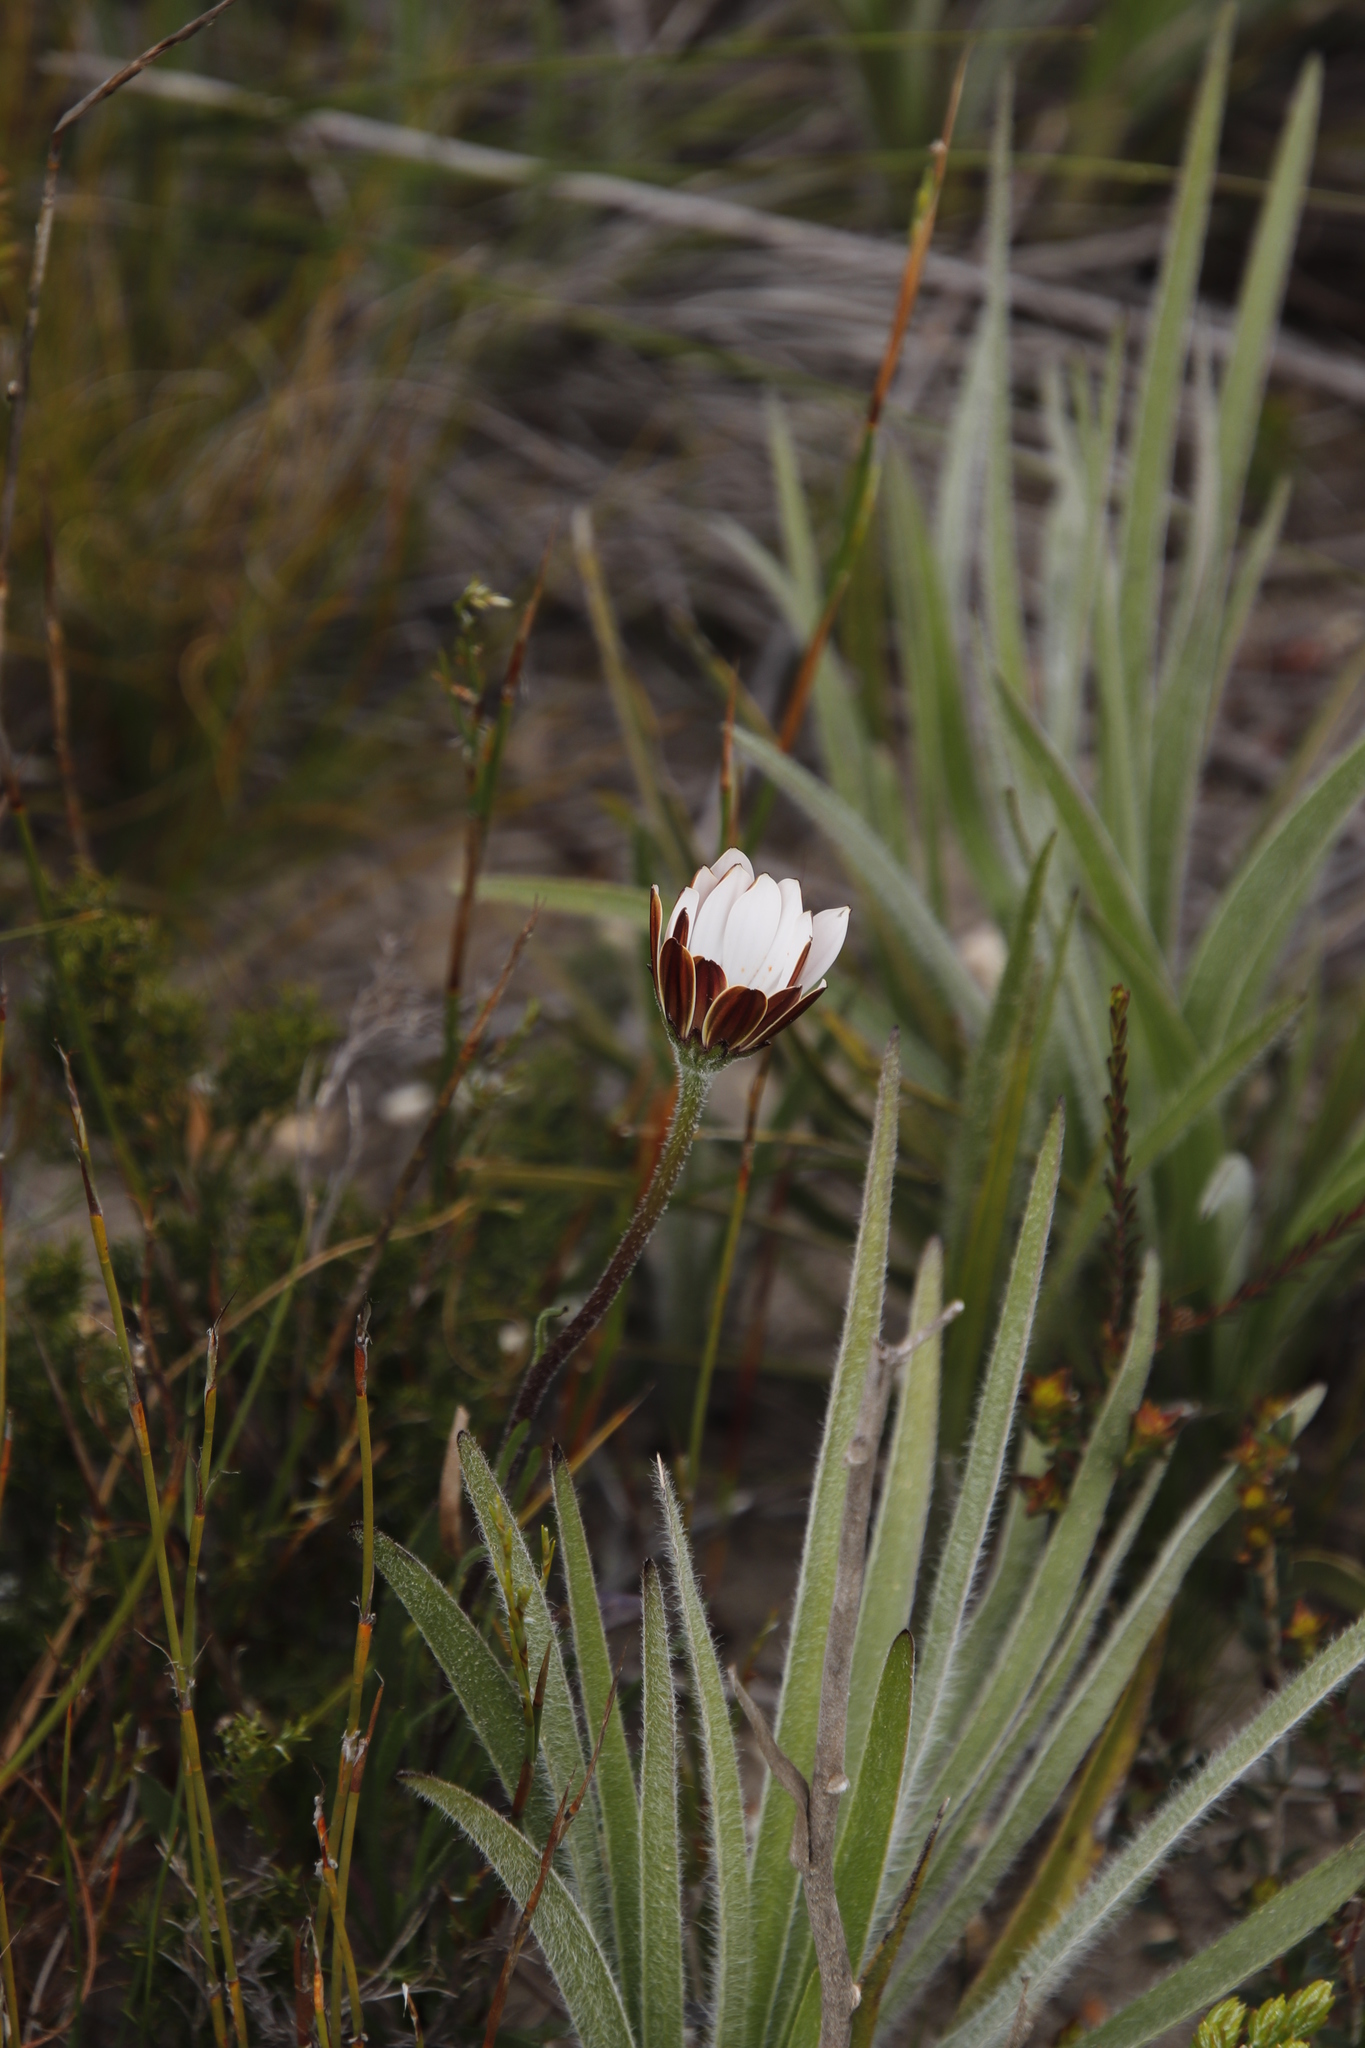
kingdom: Plantae
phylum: Tracheophyta
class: Magnoliopsida
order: Asterales
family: Asteraceae
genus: Dimorphotheca
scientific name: Dimorphotheca nudicaulis
